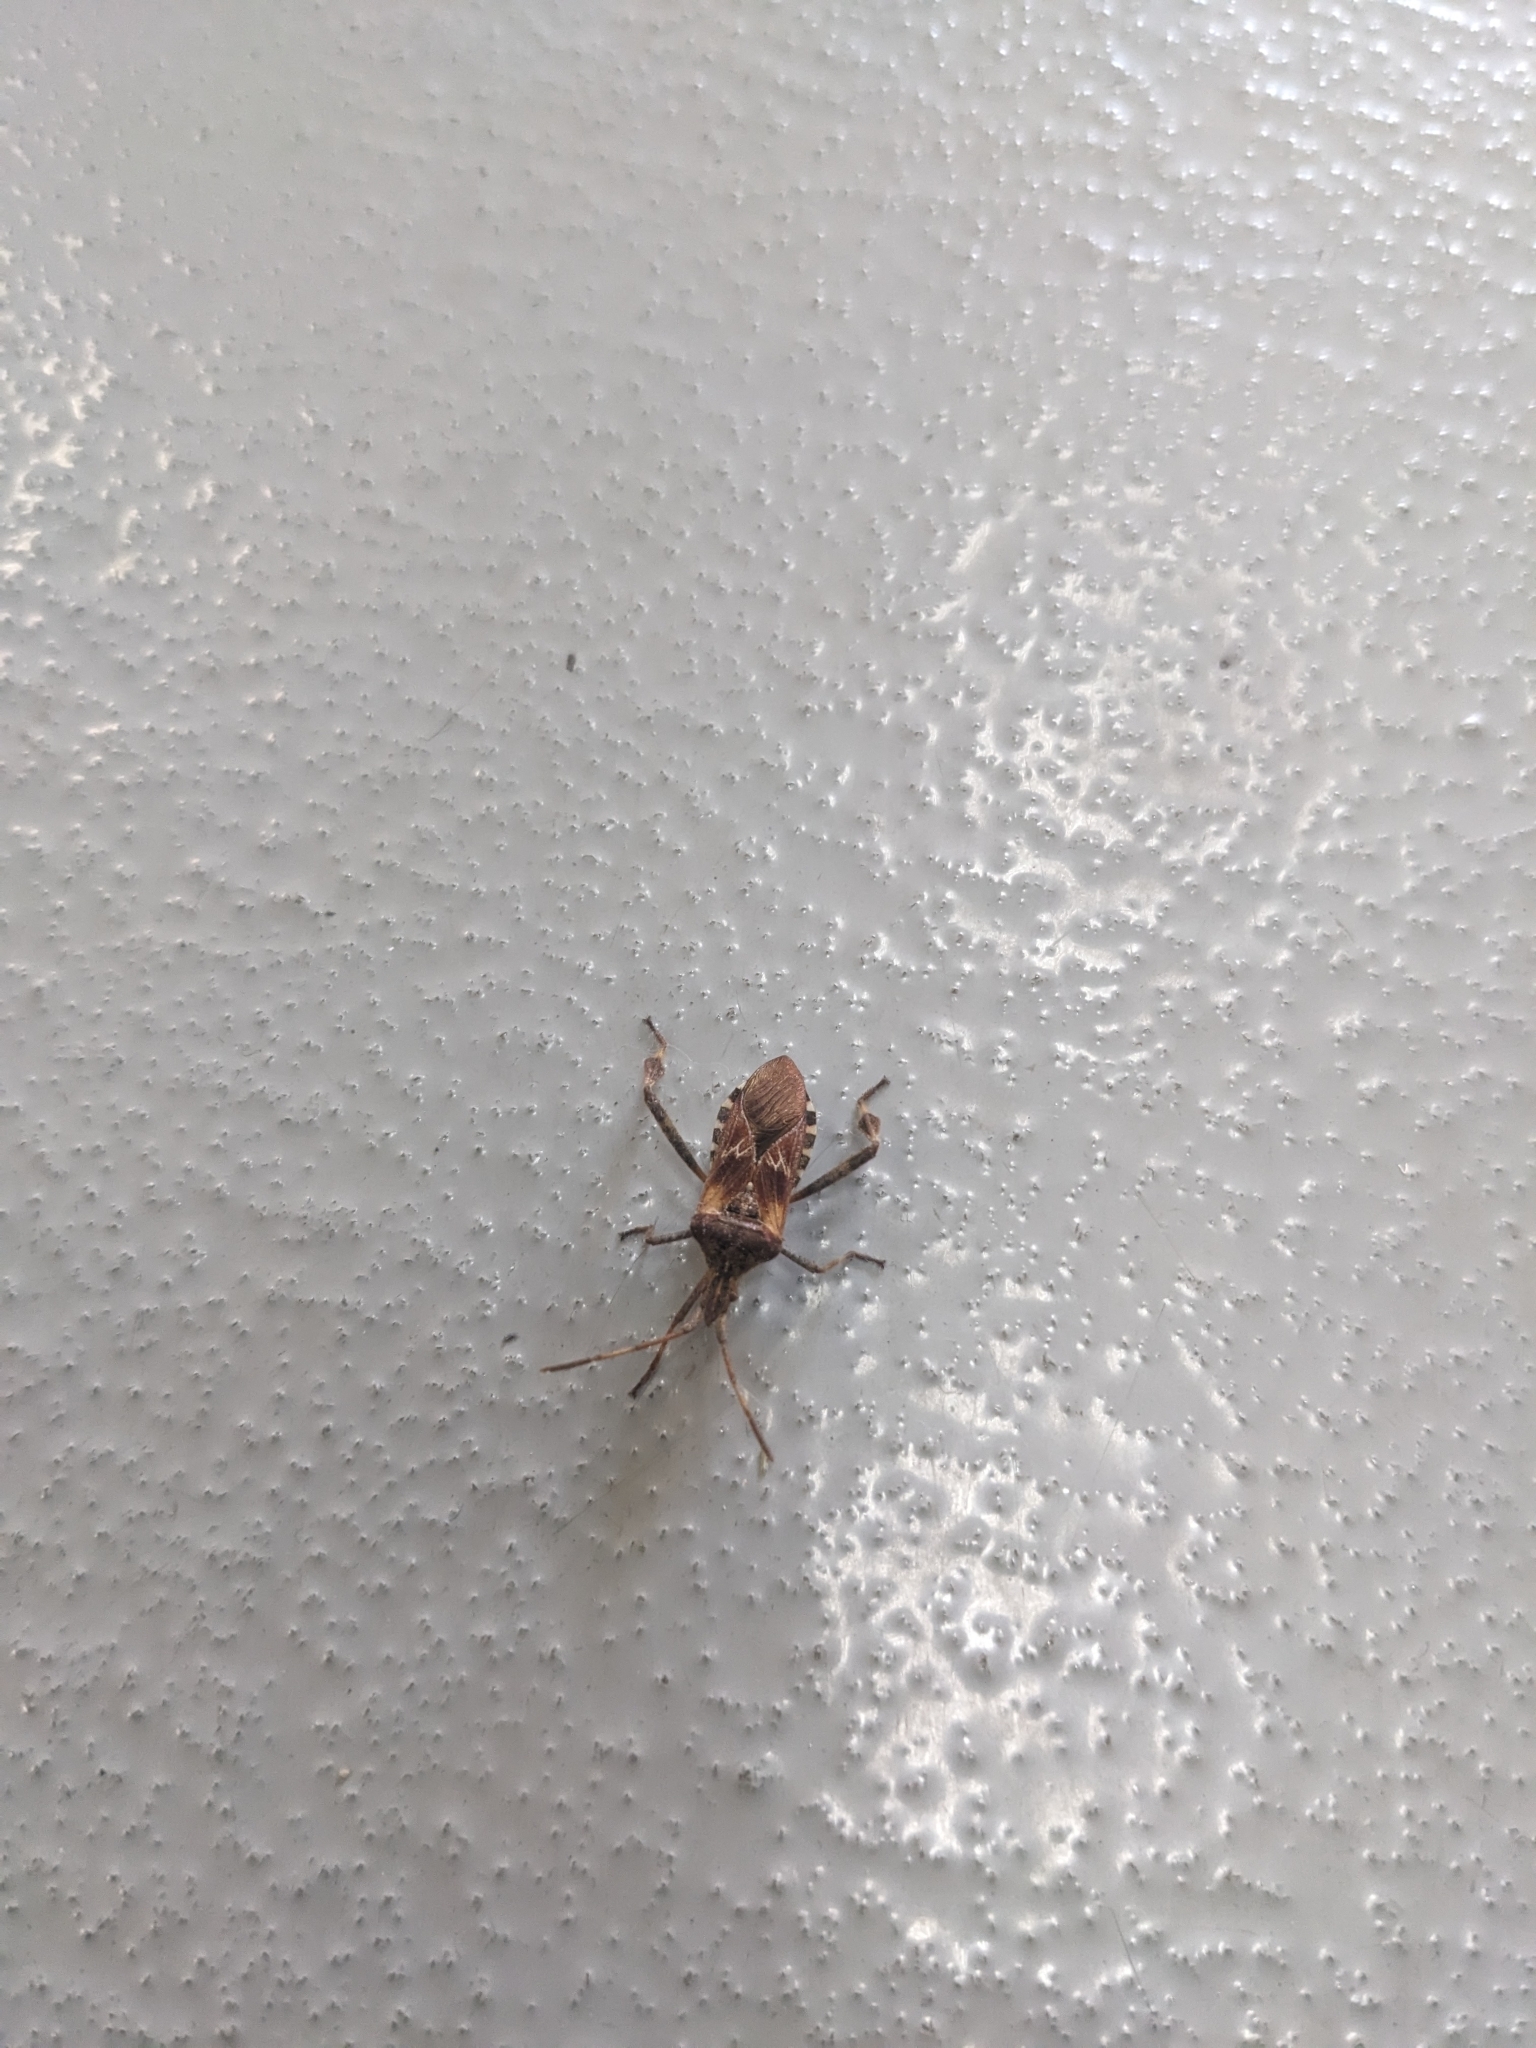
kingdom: Animalia
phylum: Arthropoda
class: Insecta
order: Hemiptera
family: Coreidae
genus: Leptoglossus
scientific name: Leptoglossus occidentalis
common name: Western conifer-seed bug
